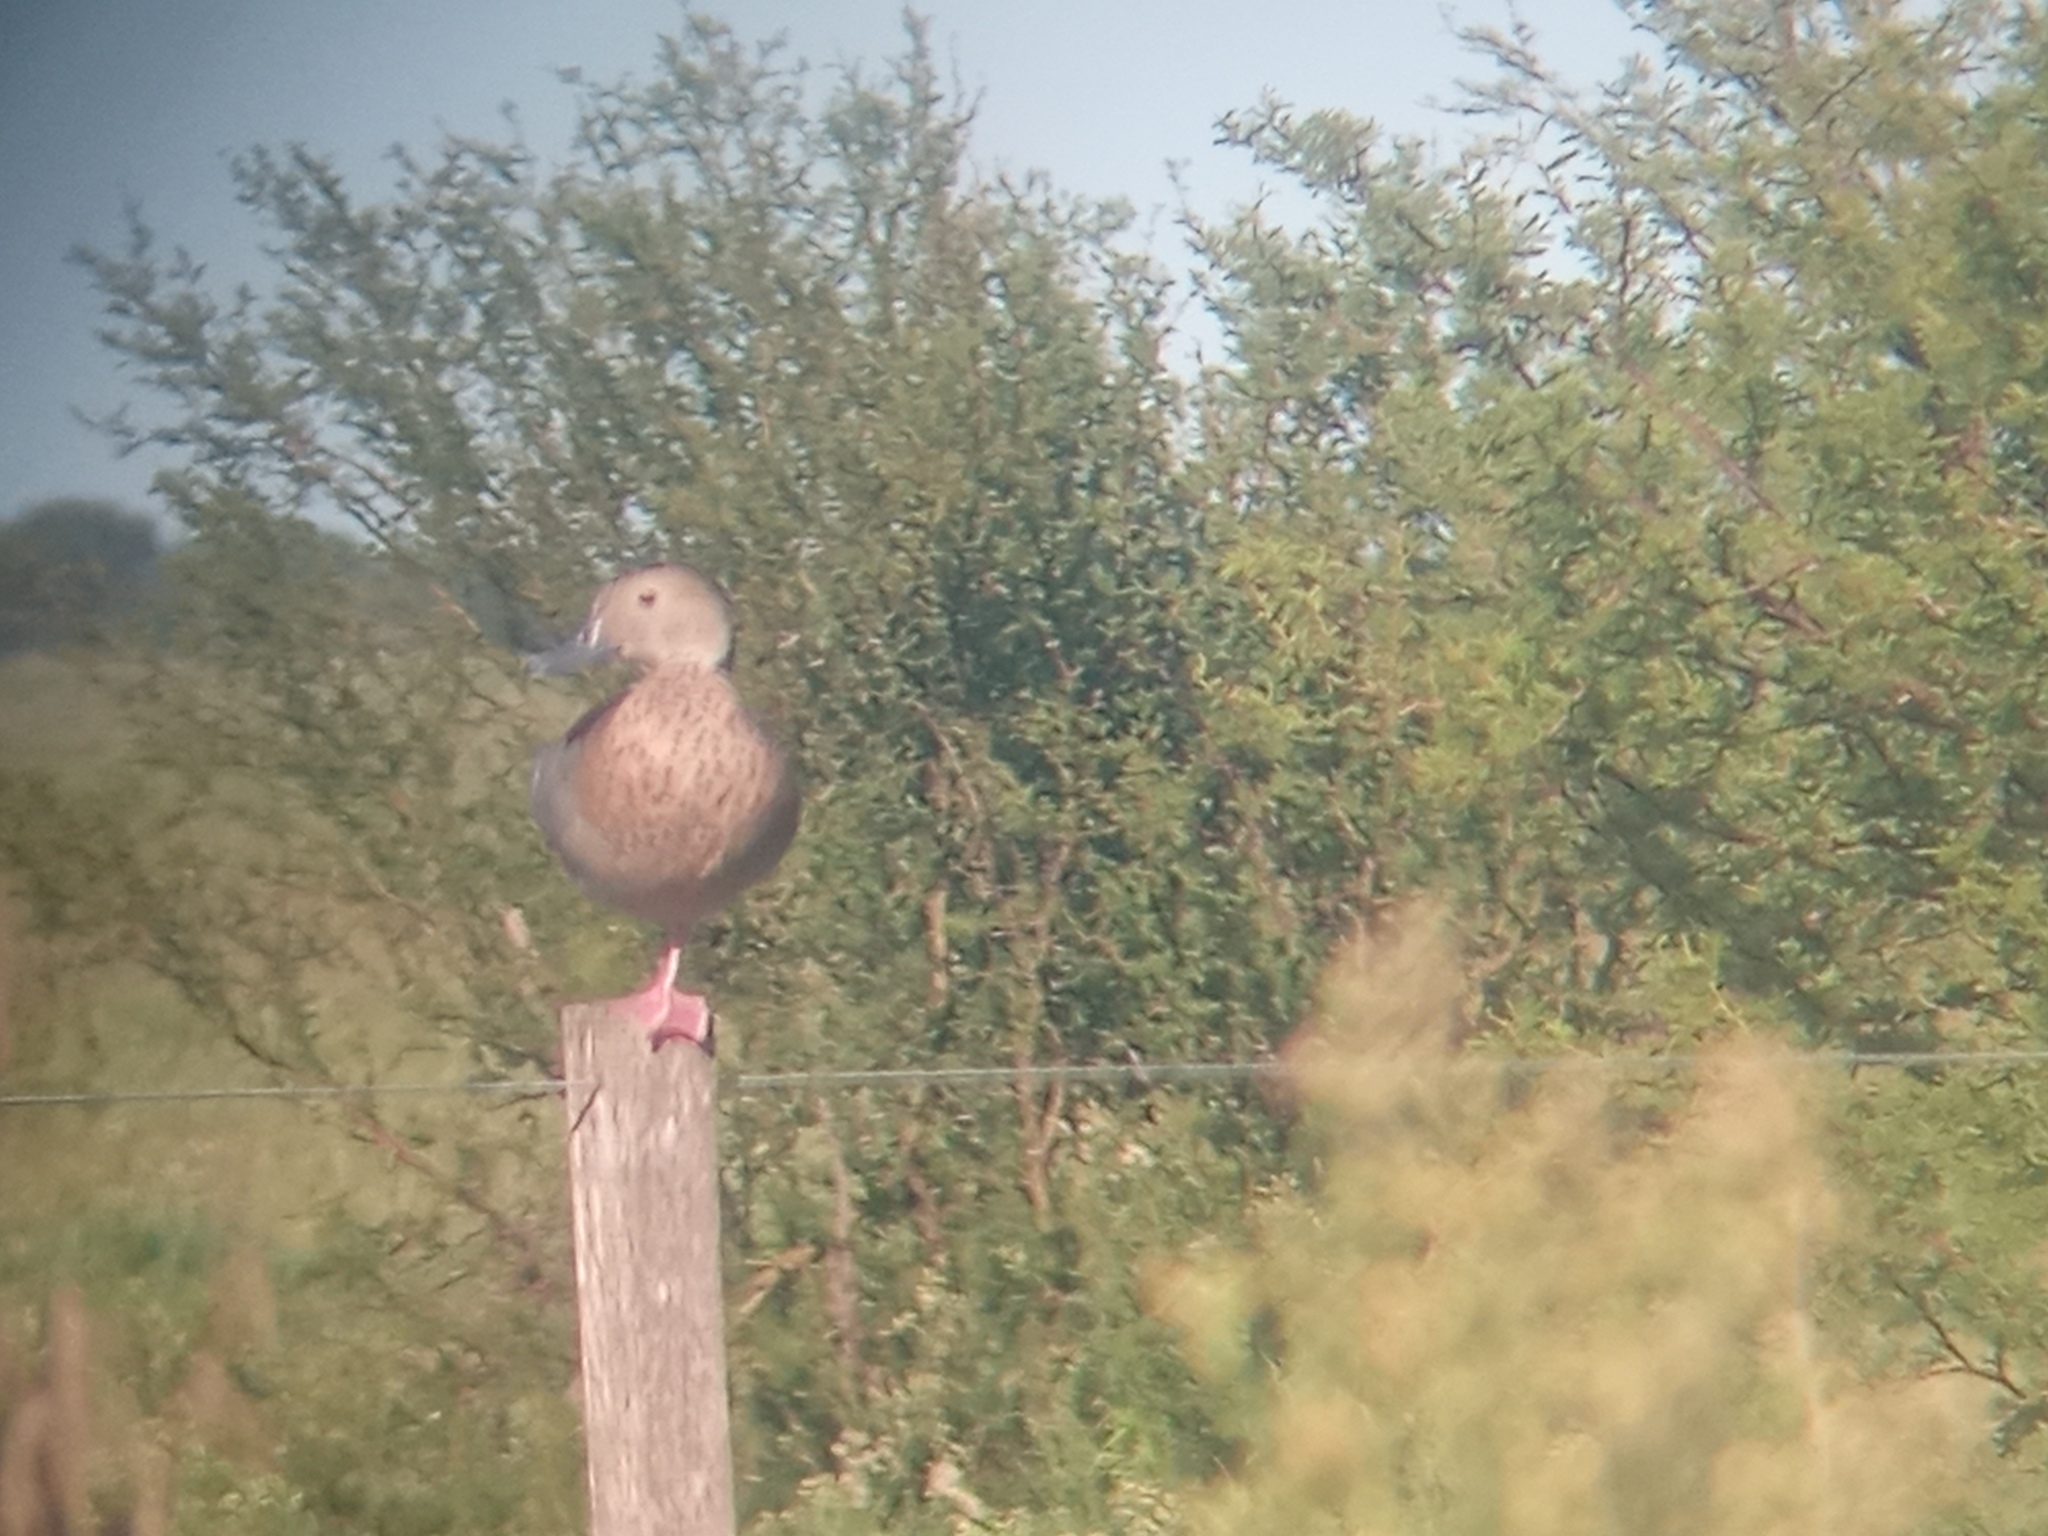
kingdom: Animalia
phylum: Chordata
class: Aves
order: Anseriformes
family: Anatidae
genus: Callonetta
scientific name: Callonetta leucophrys
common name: Ringed teal
